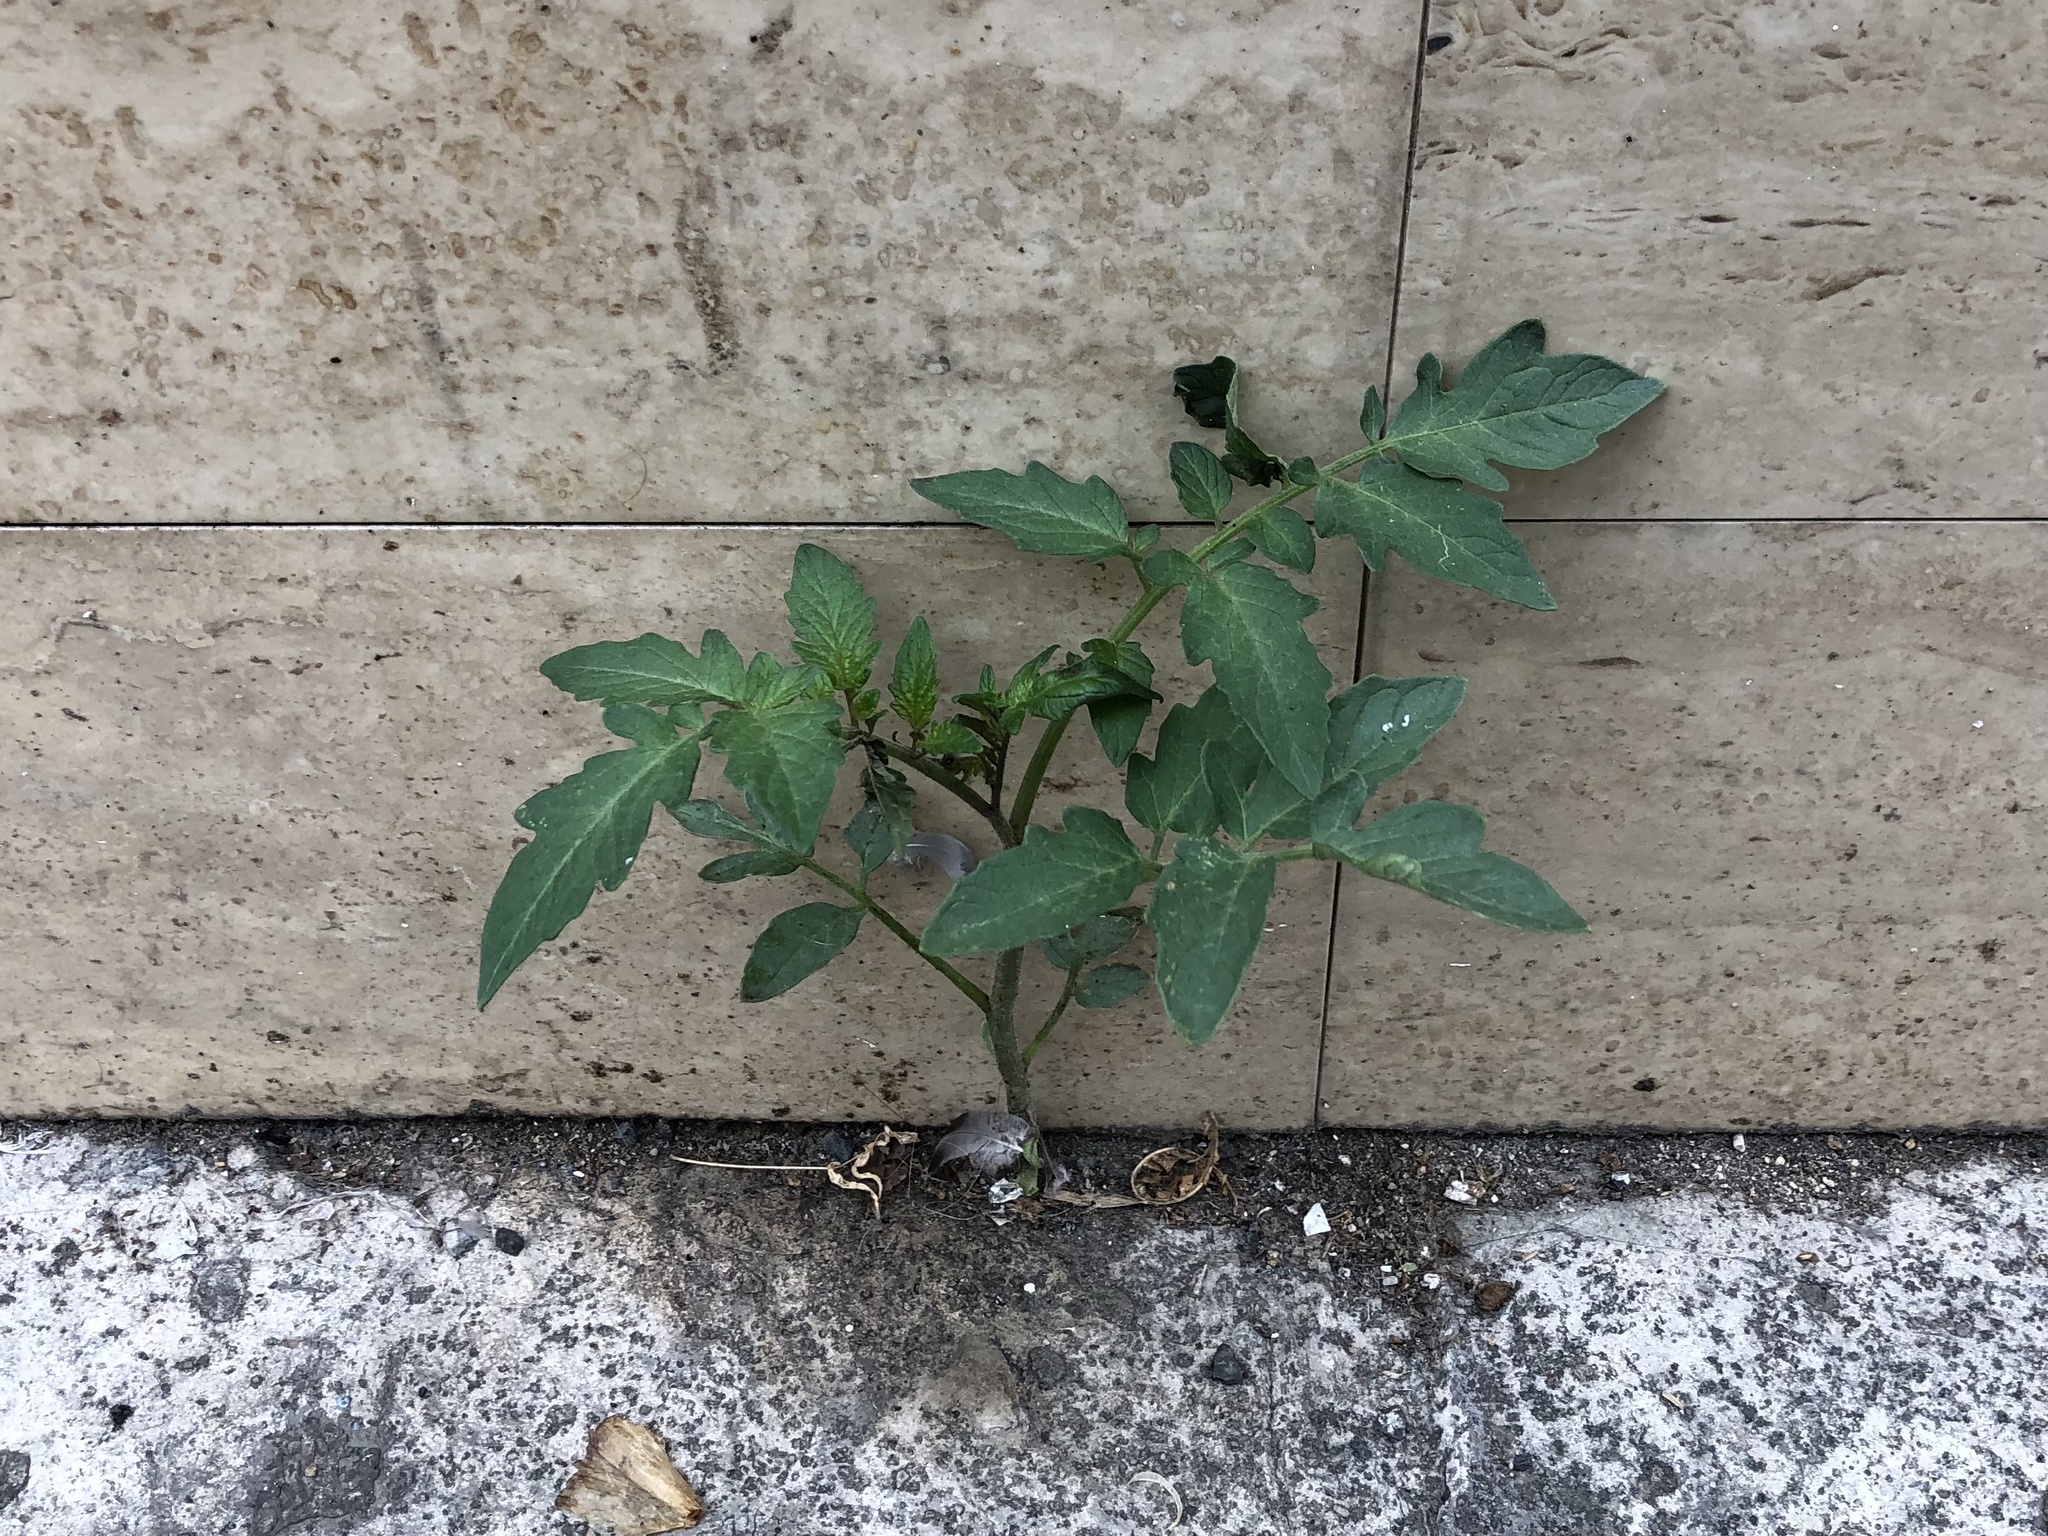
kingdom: Plantae
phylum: Tracheophyta
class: Magnoliopsida
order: Solanales
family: Solanaceae
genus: Solanum
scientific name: Solanum lycopersicum
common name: Garden tomato
